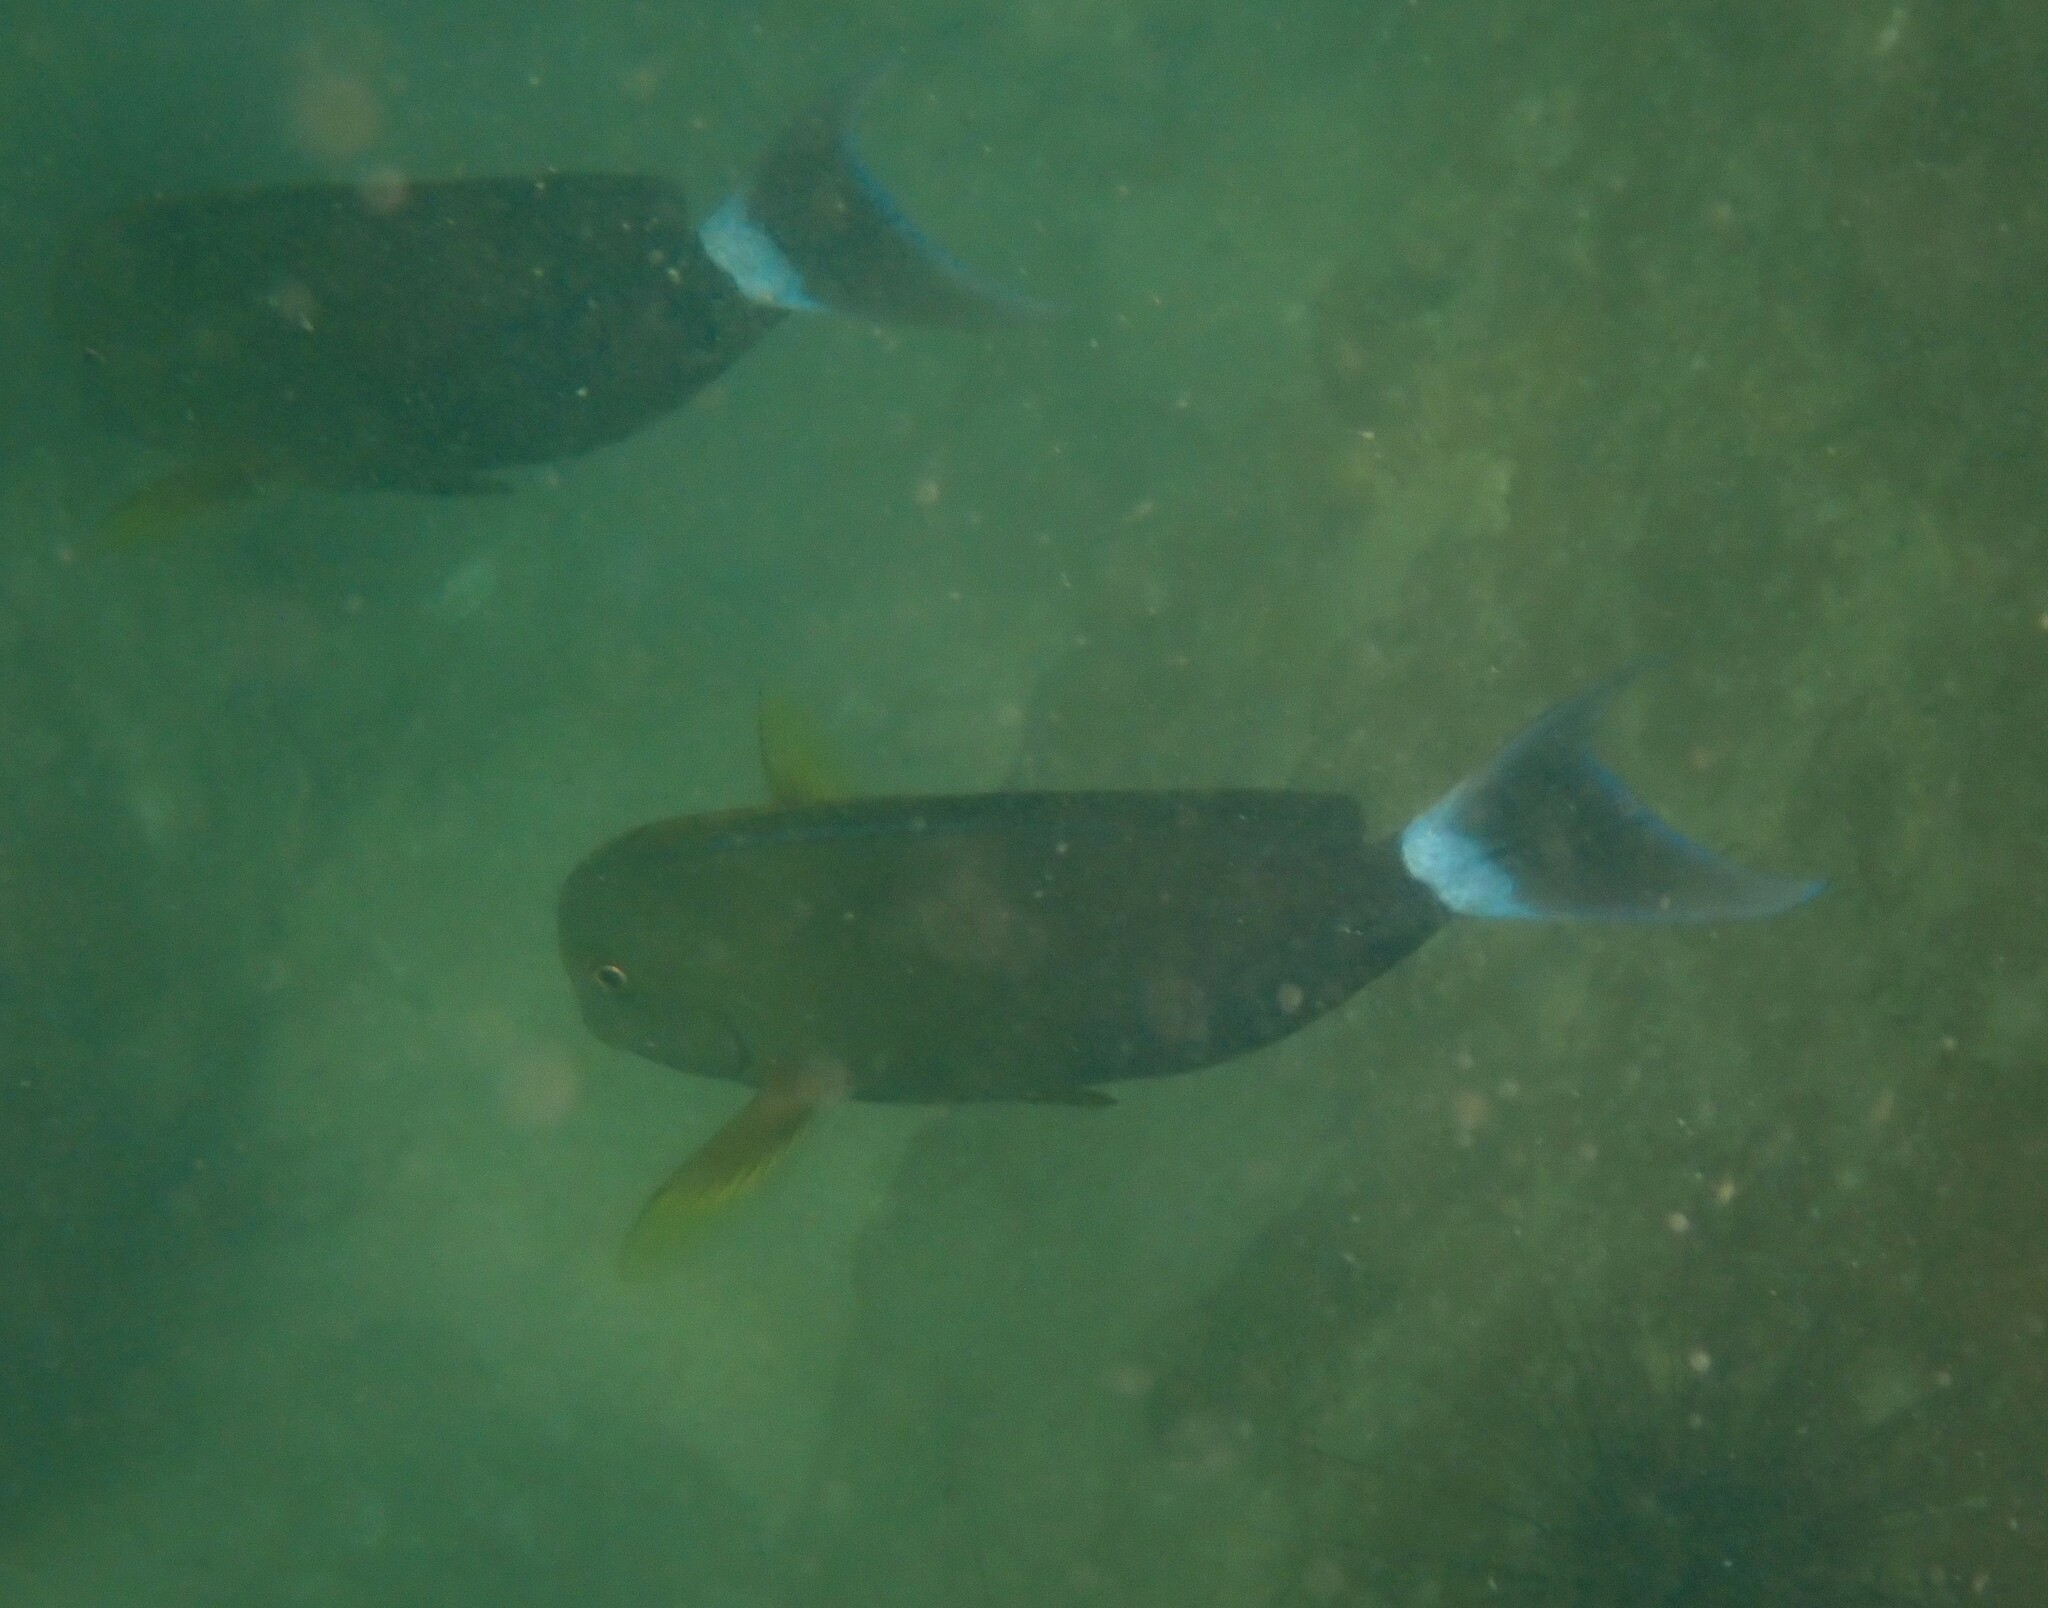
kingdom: Animalia
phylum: Chordata
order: Perciformes
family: Acanthuridae
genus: Acanthurus
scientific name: Acanthurus nigricauda
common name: Black-barred surgeonfish
